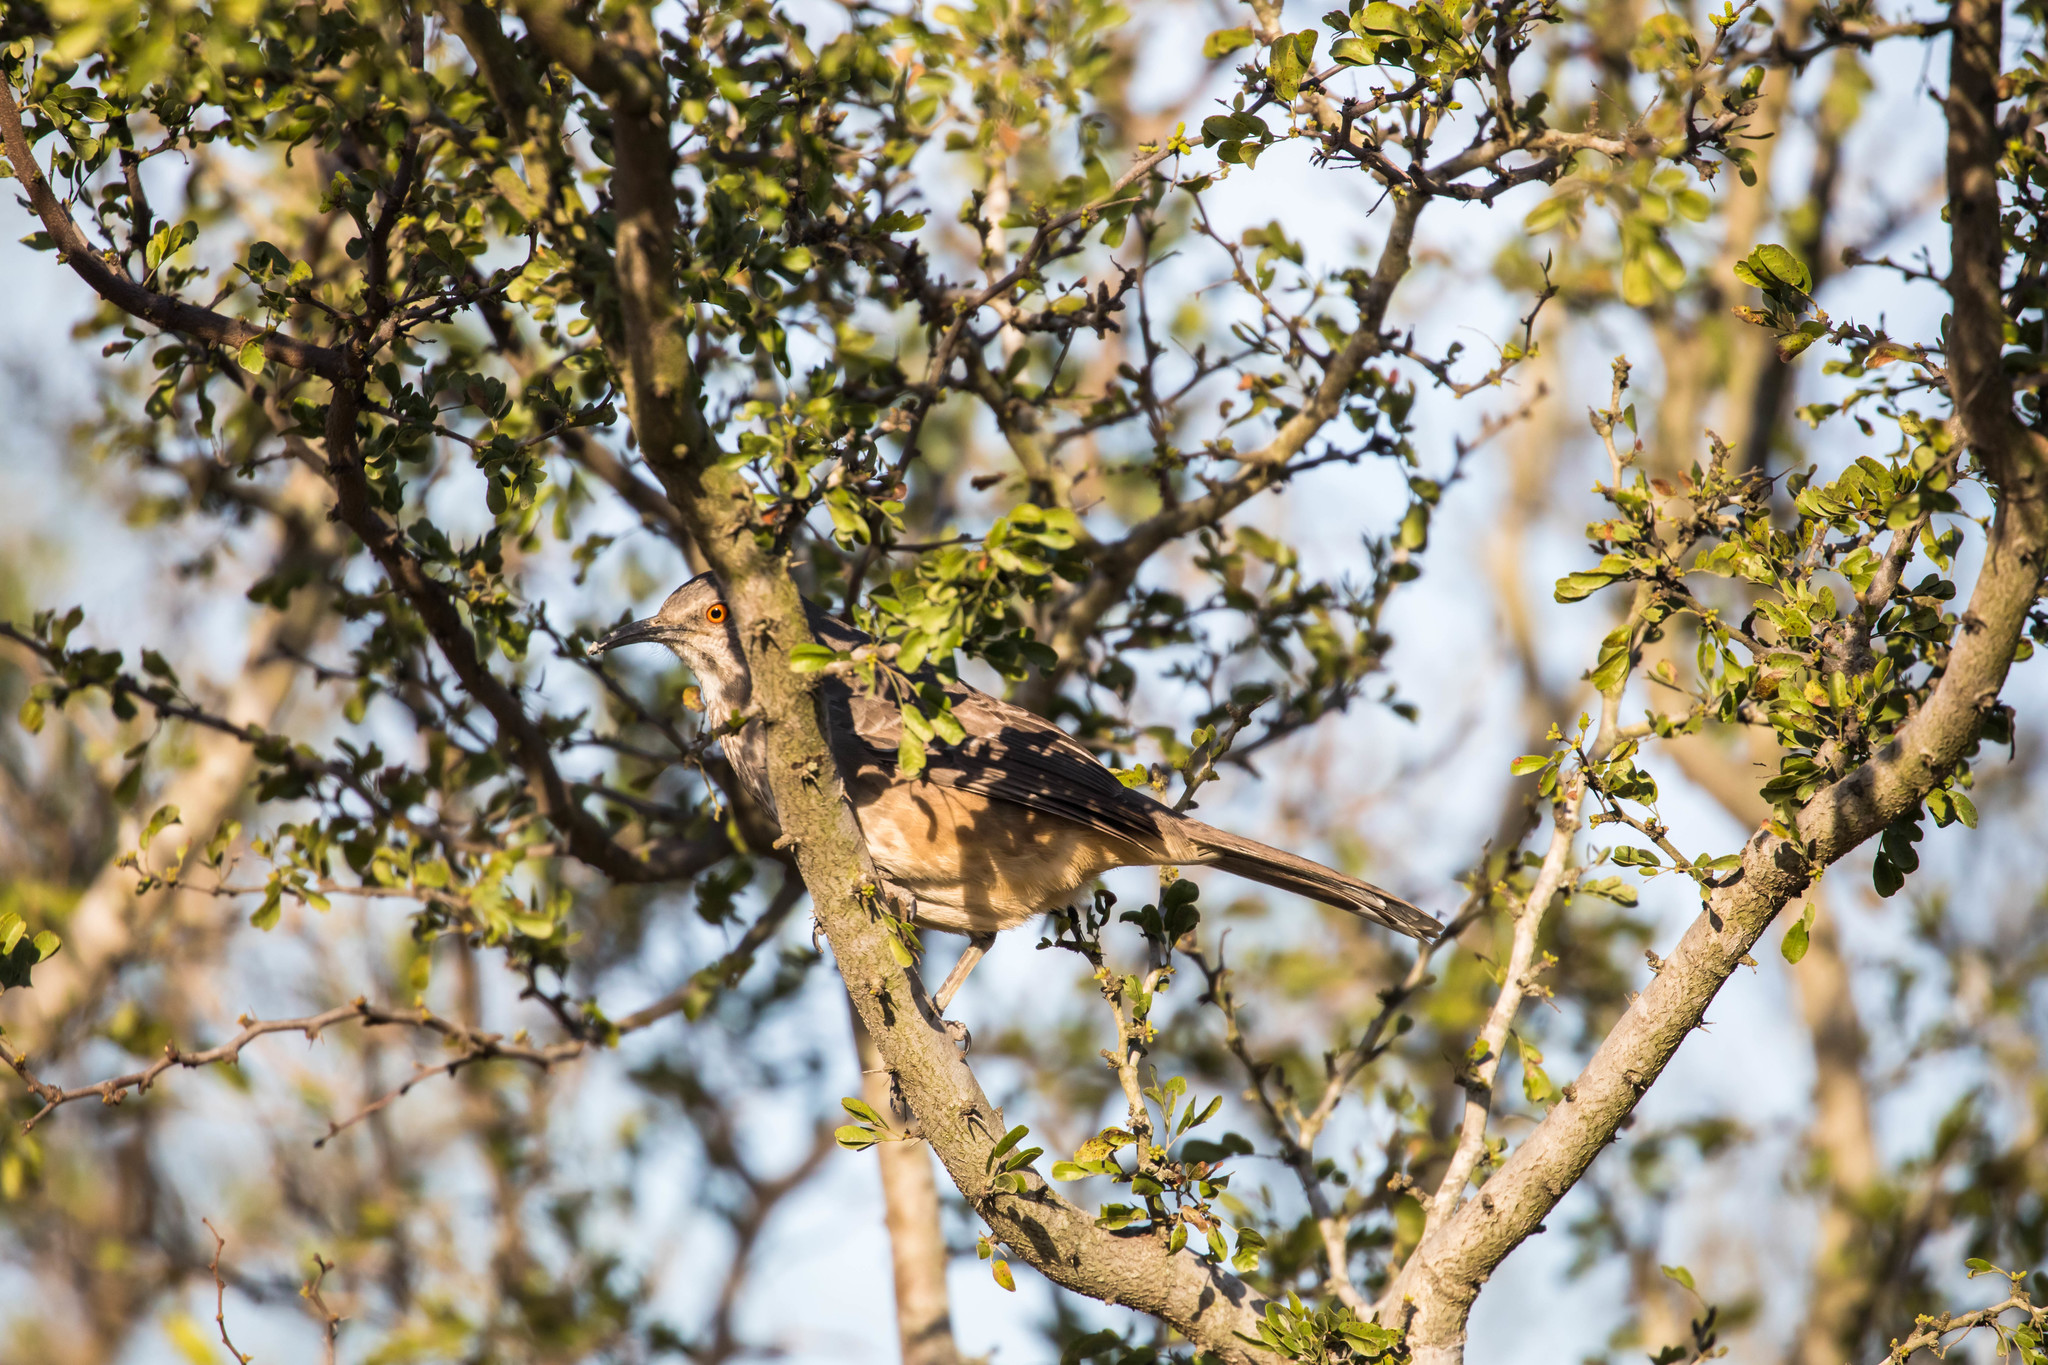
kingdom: Animalia
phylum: Chordata
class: Aves
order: Passeriformes
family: Mimidae
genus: Toxostoma
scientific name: Toxostoma curvirostre
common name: Curve-billed thrasher
